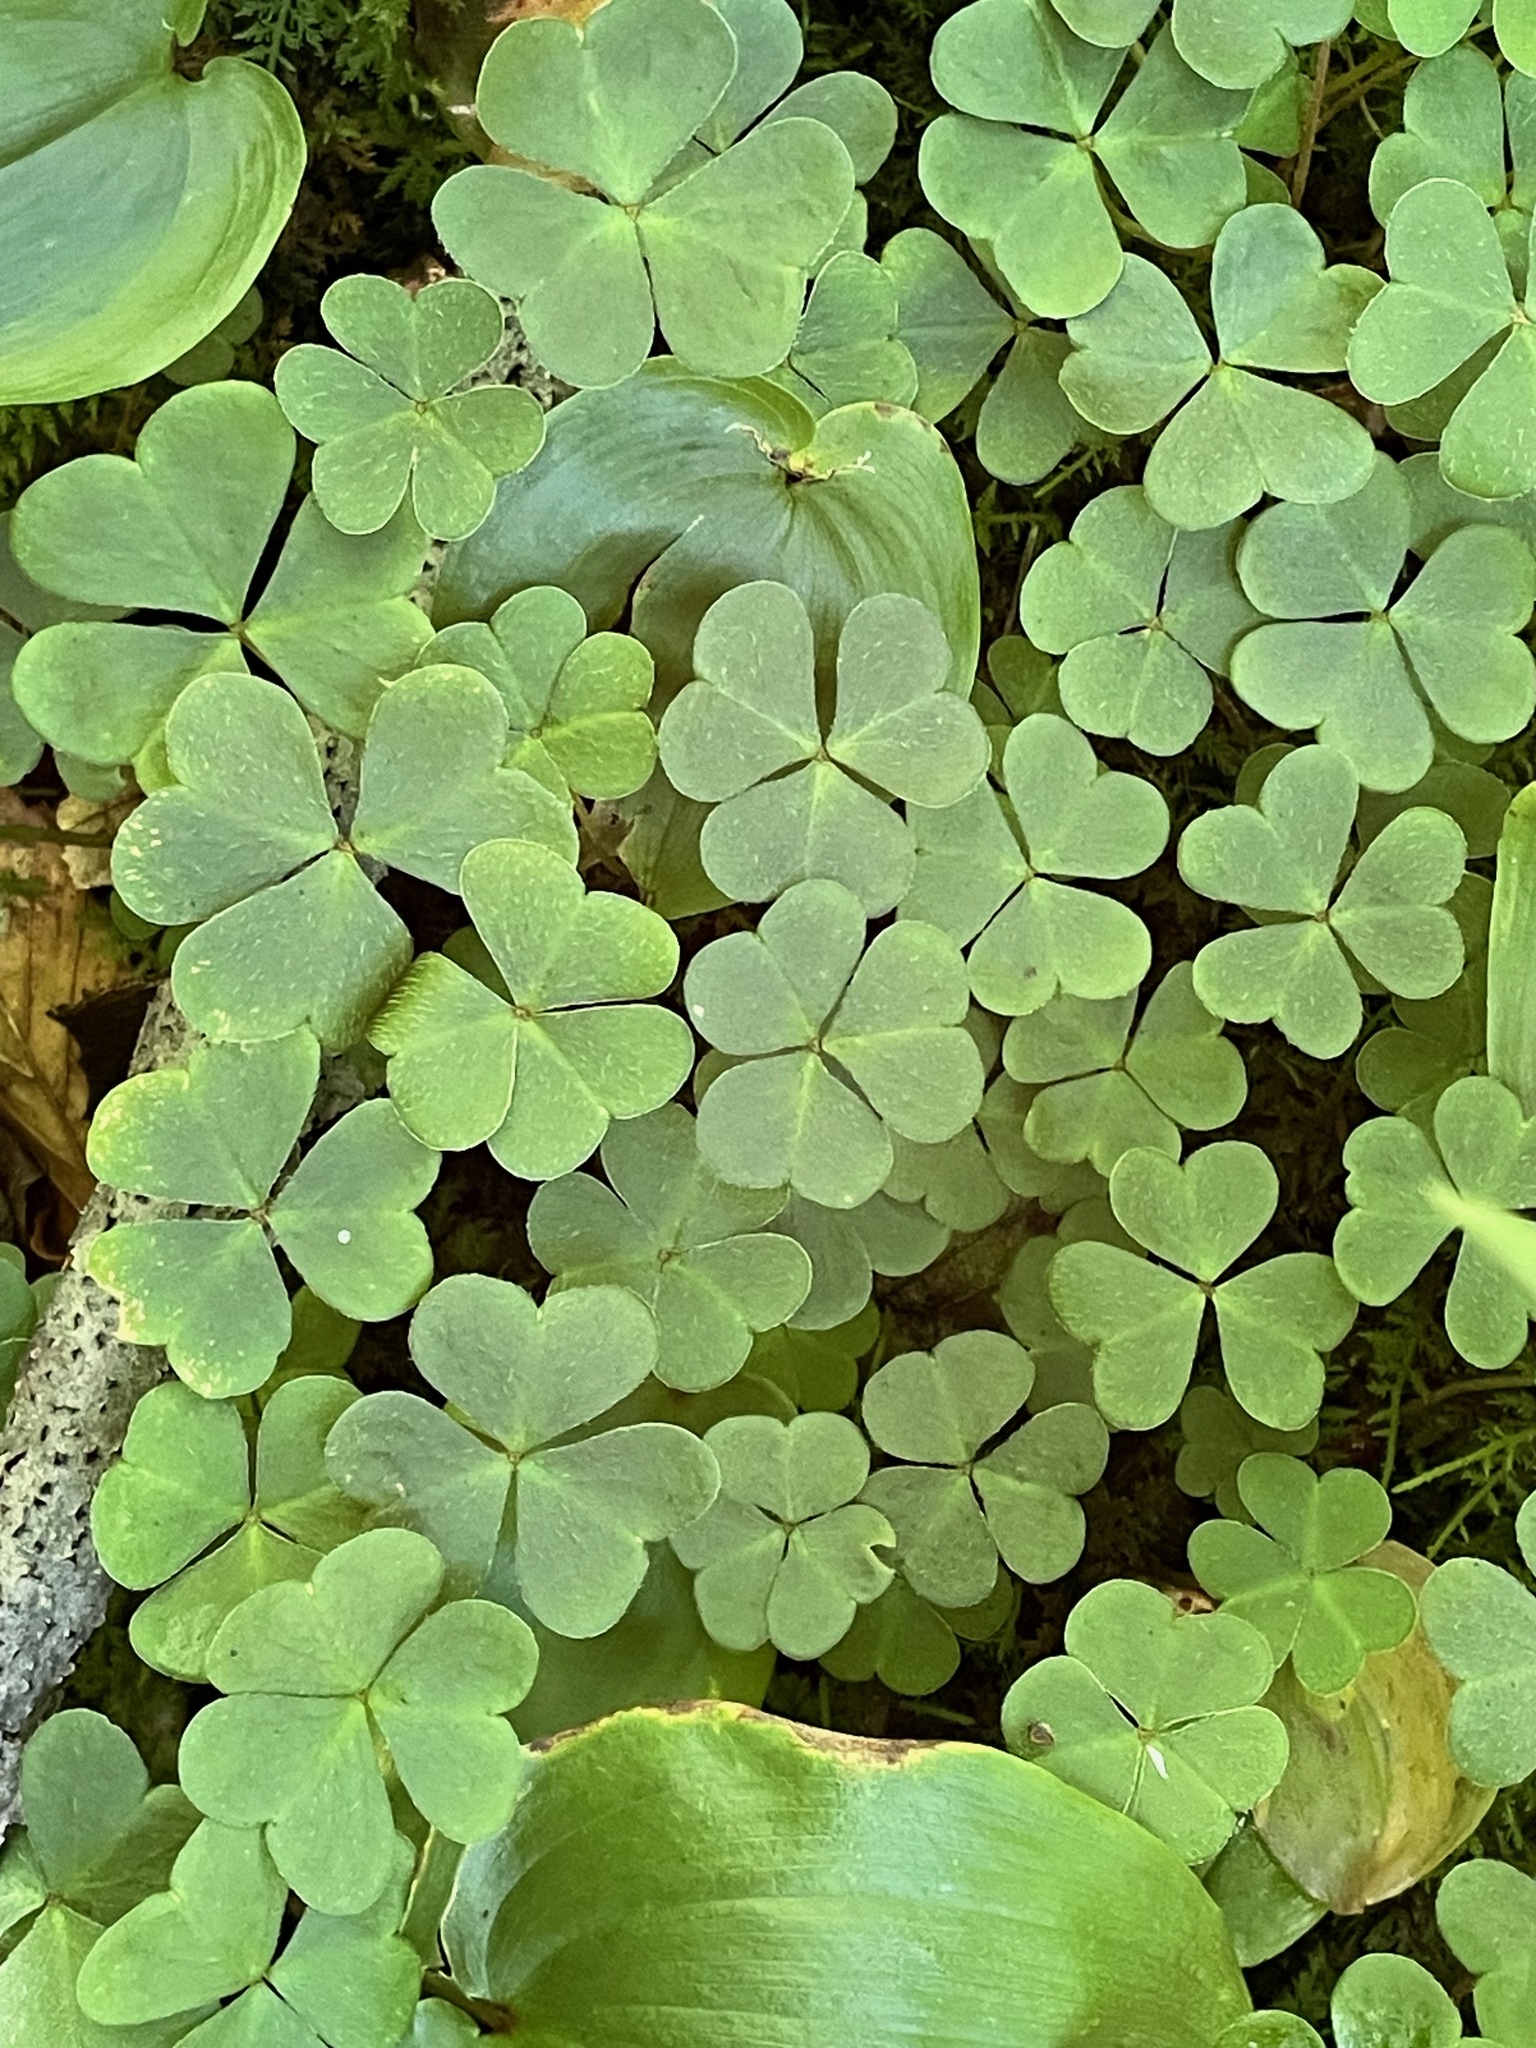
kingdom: Plantae
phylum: Tracheophyta
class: Magnoliopsida
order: Oxalidales
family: Oxalidaceae
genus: Oxalis
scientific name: Oxalis montana
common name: American wood-sorrel
